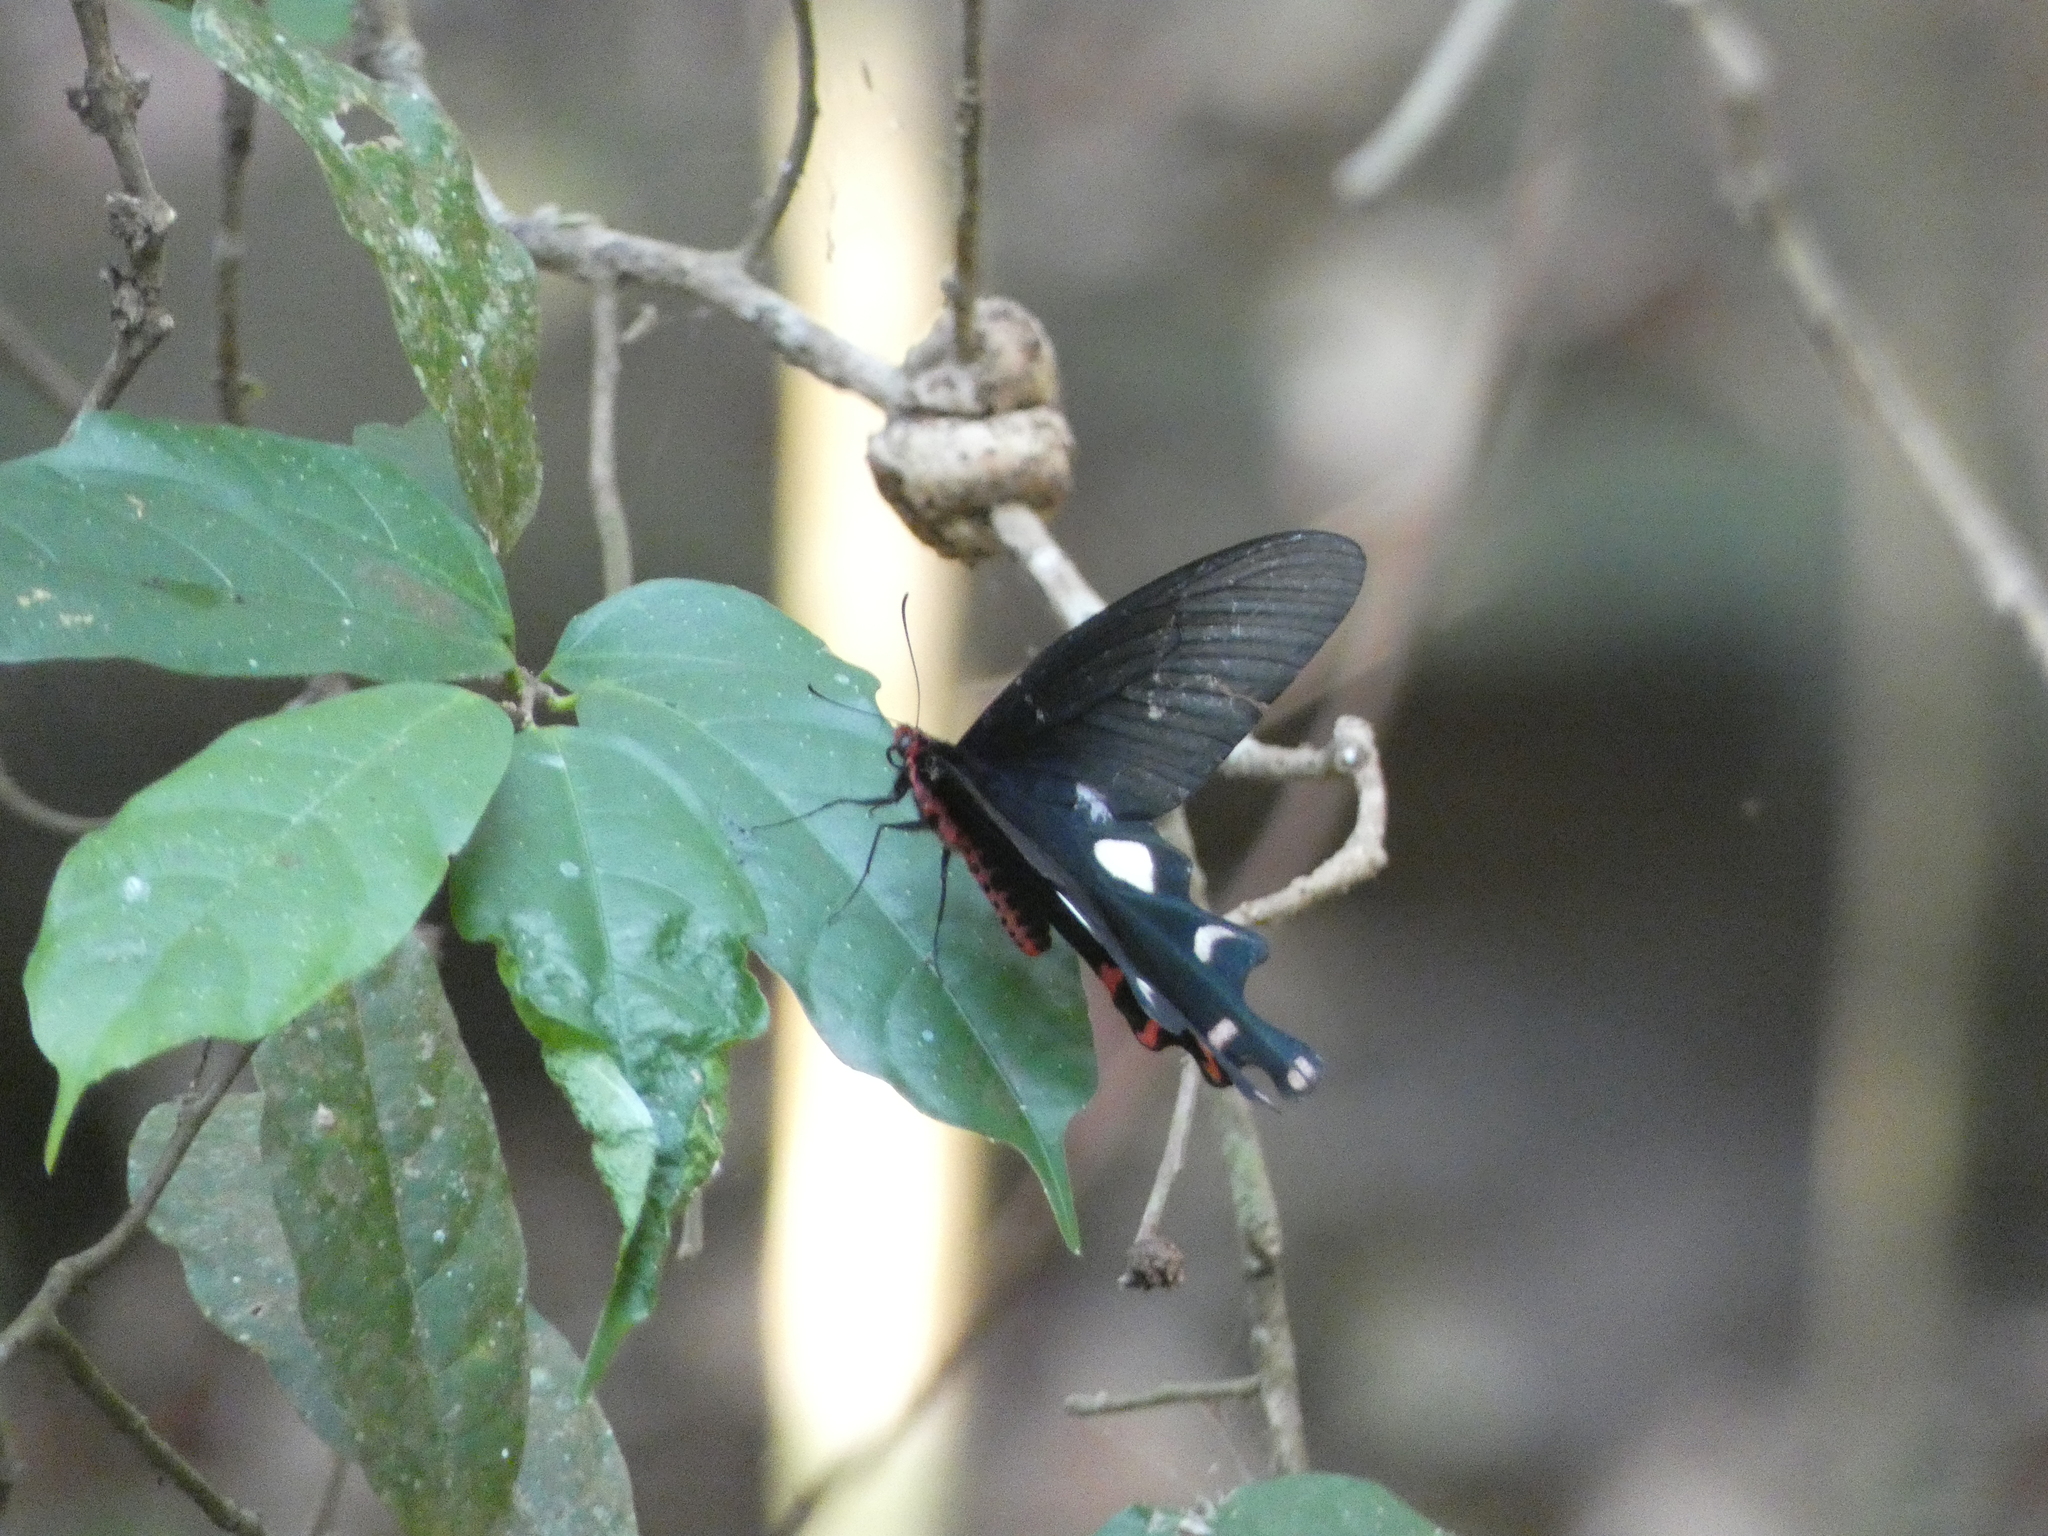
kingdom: Animalia
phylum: Arthropoda
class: Insecta
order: Lepidoptera
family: Papilionidae
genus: Byasa
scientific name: Byasa dasarada
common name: Great windmill
